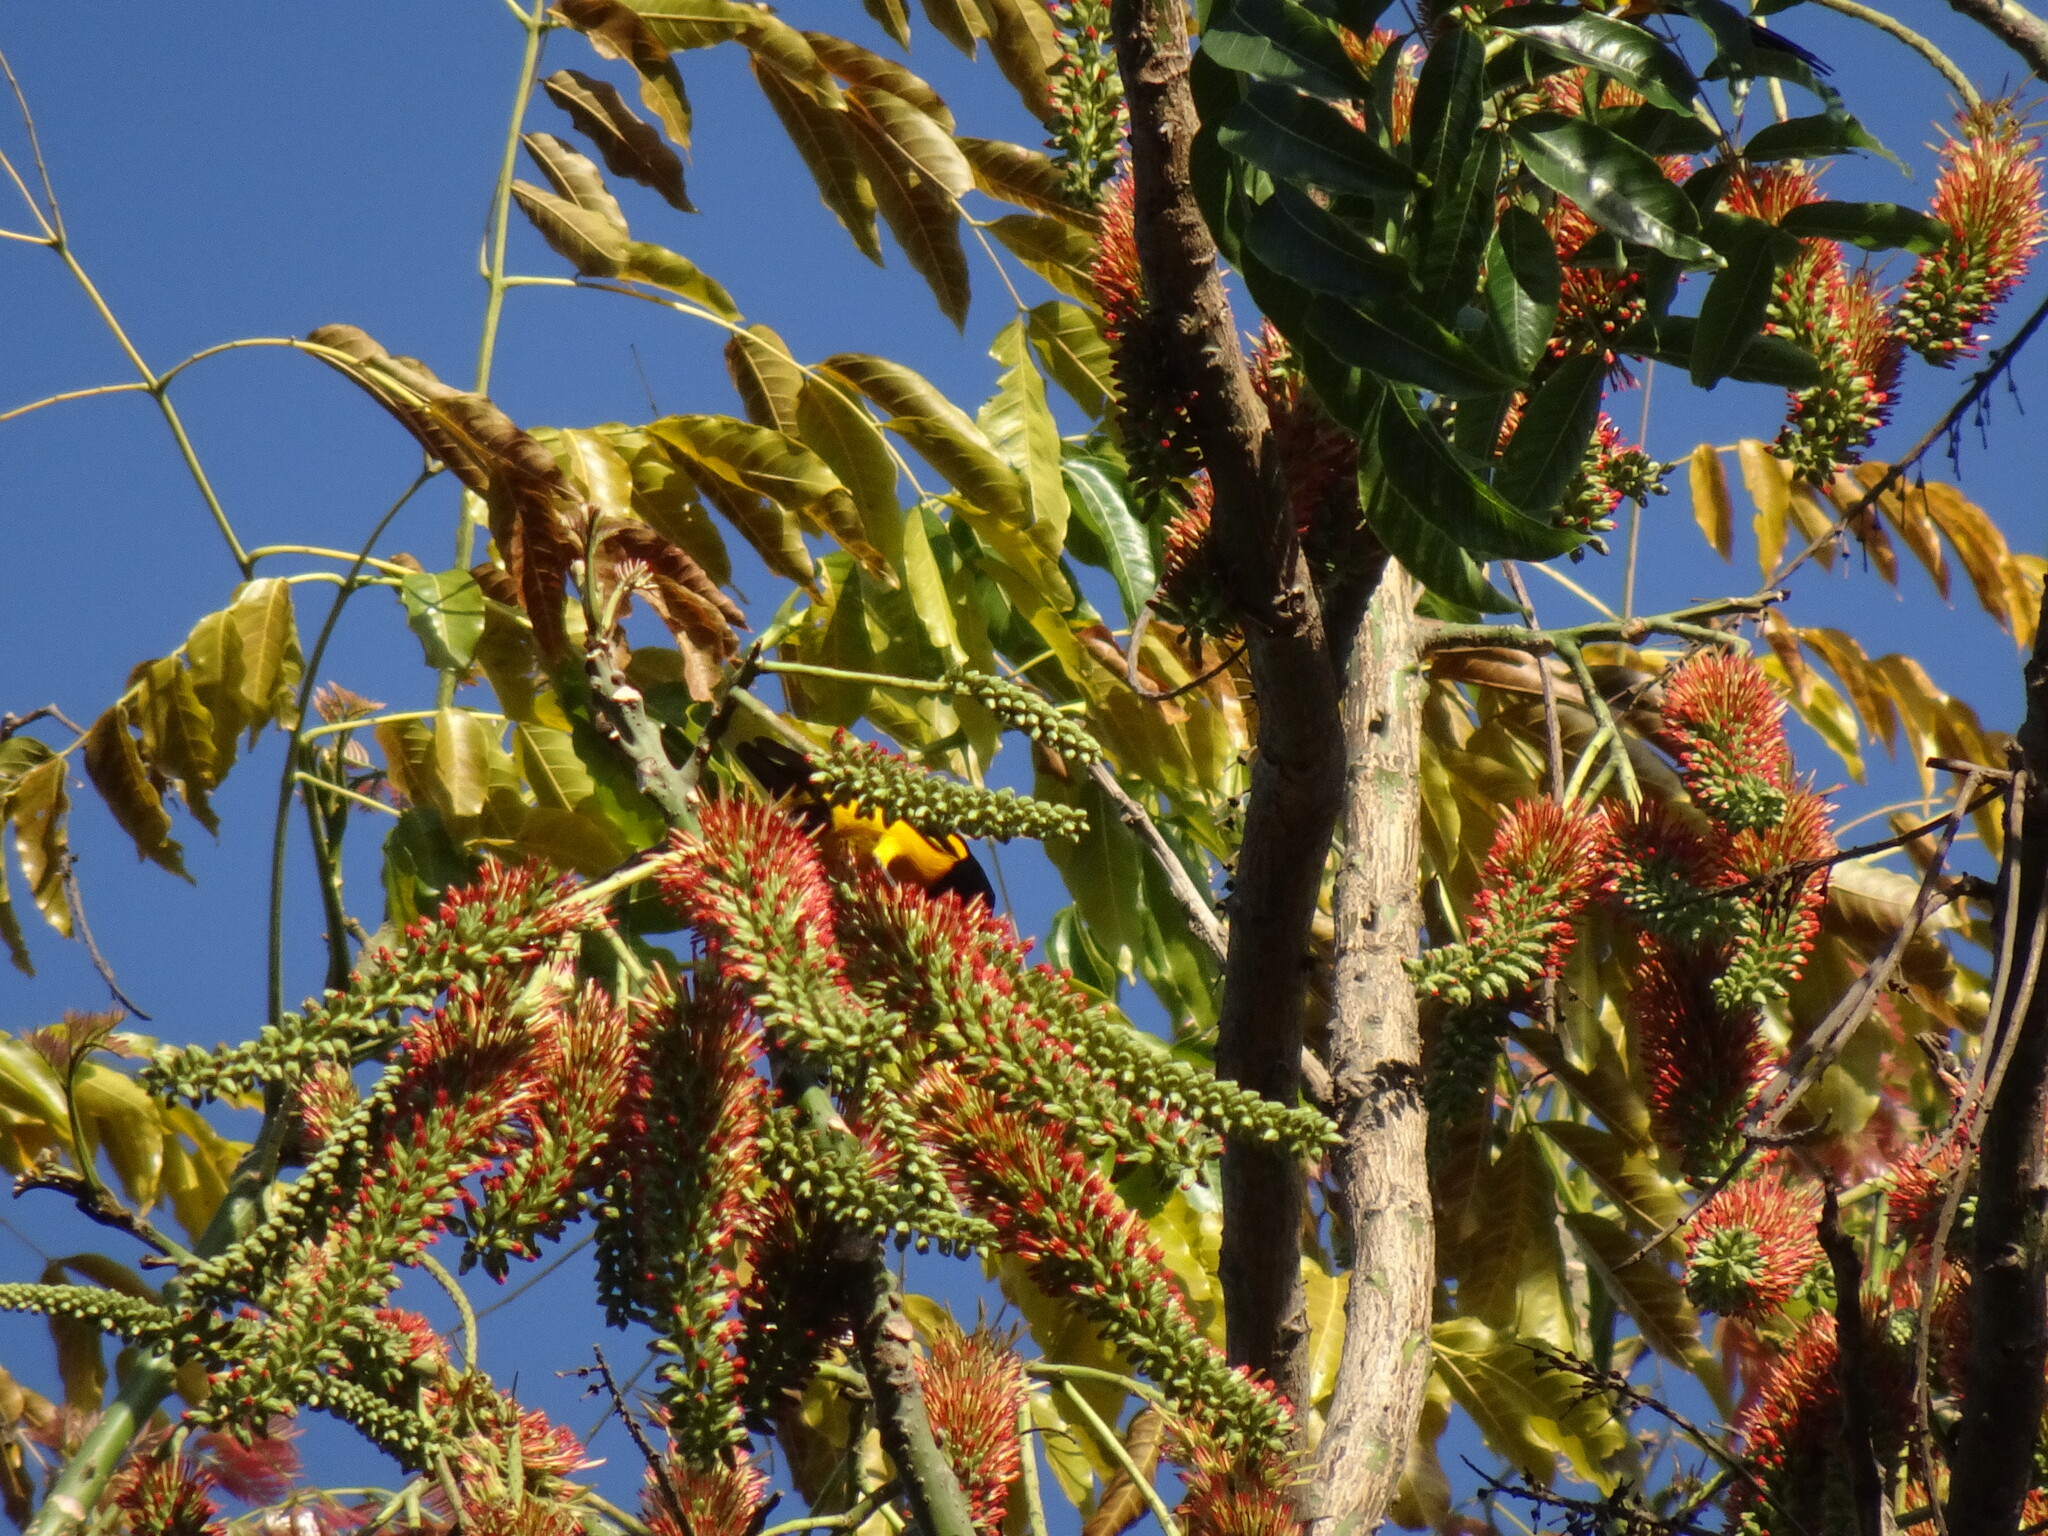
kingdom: Animalia
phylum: Chordata
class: Aves
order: Passeriformes
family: Icteridae
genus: Icterus
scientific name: Icterus wagleri
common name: Black-vented oriole
